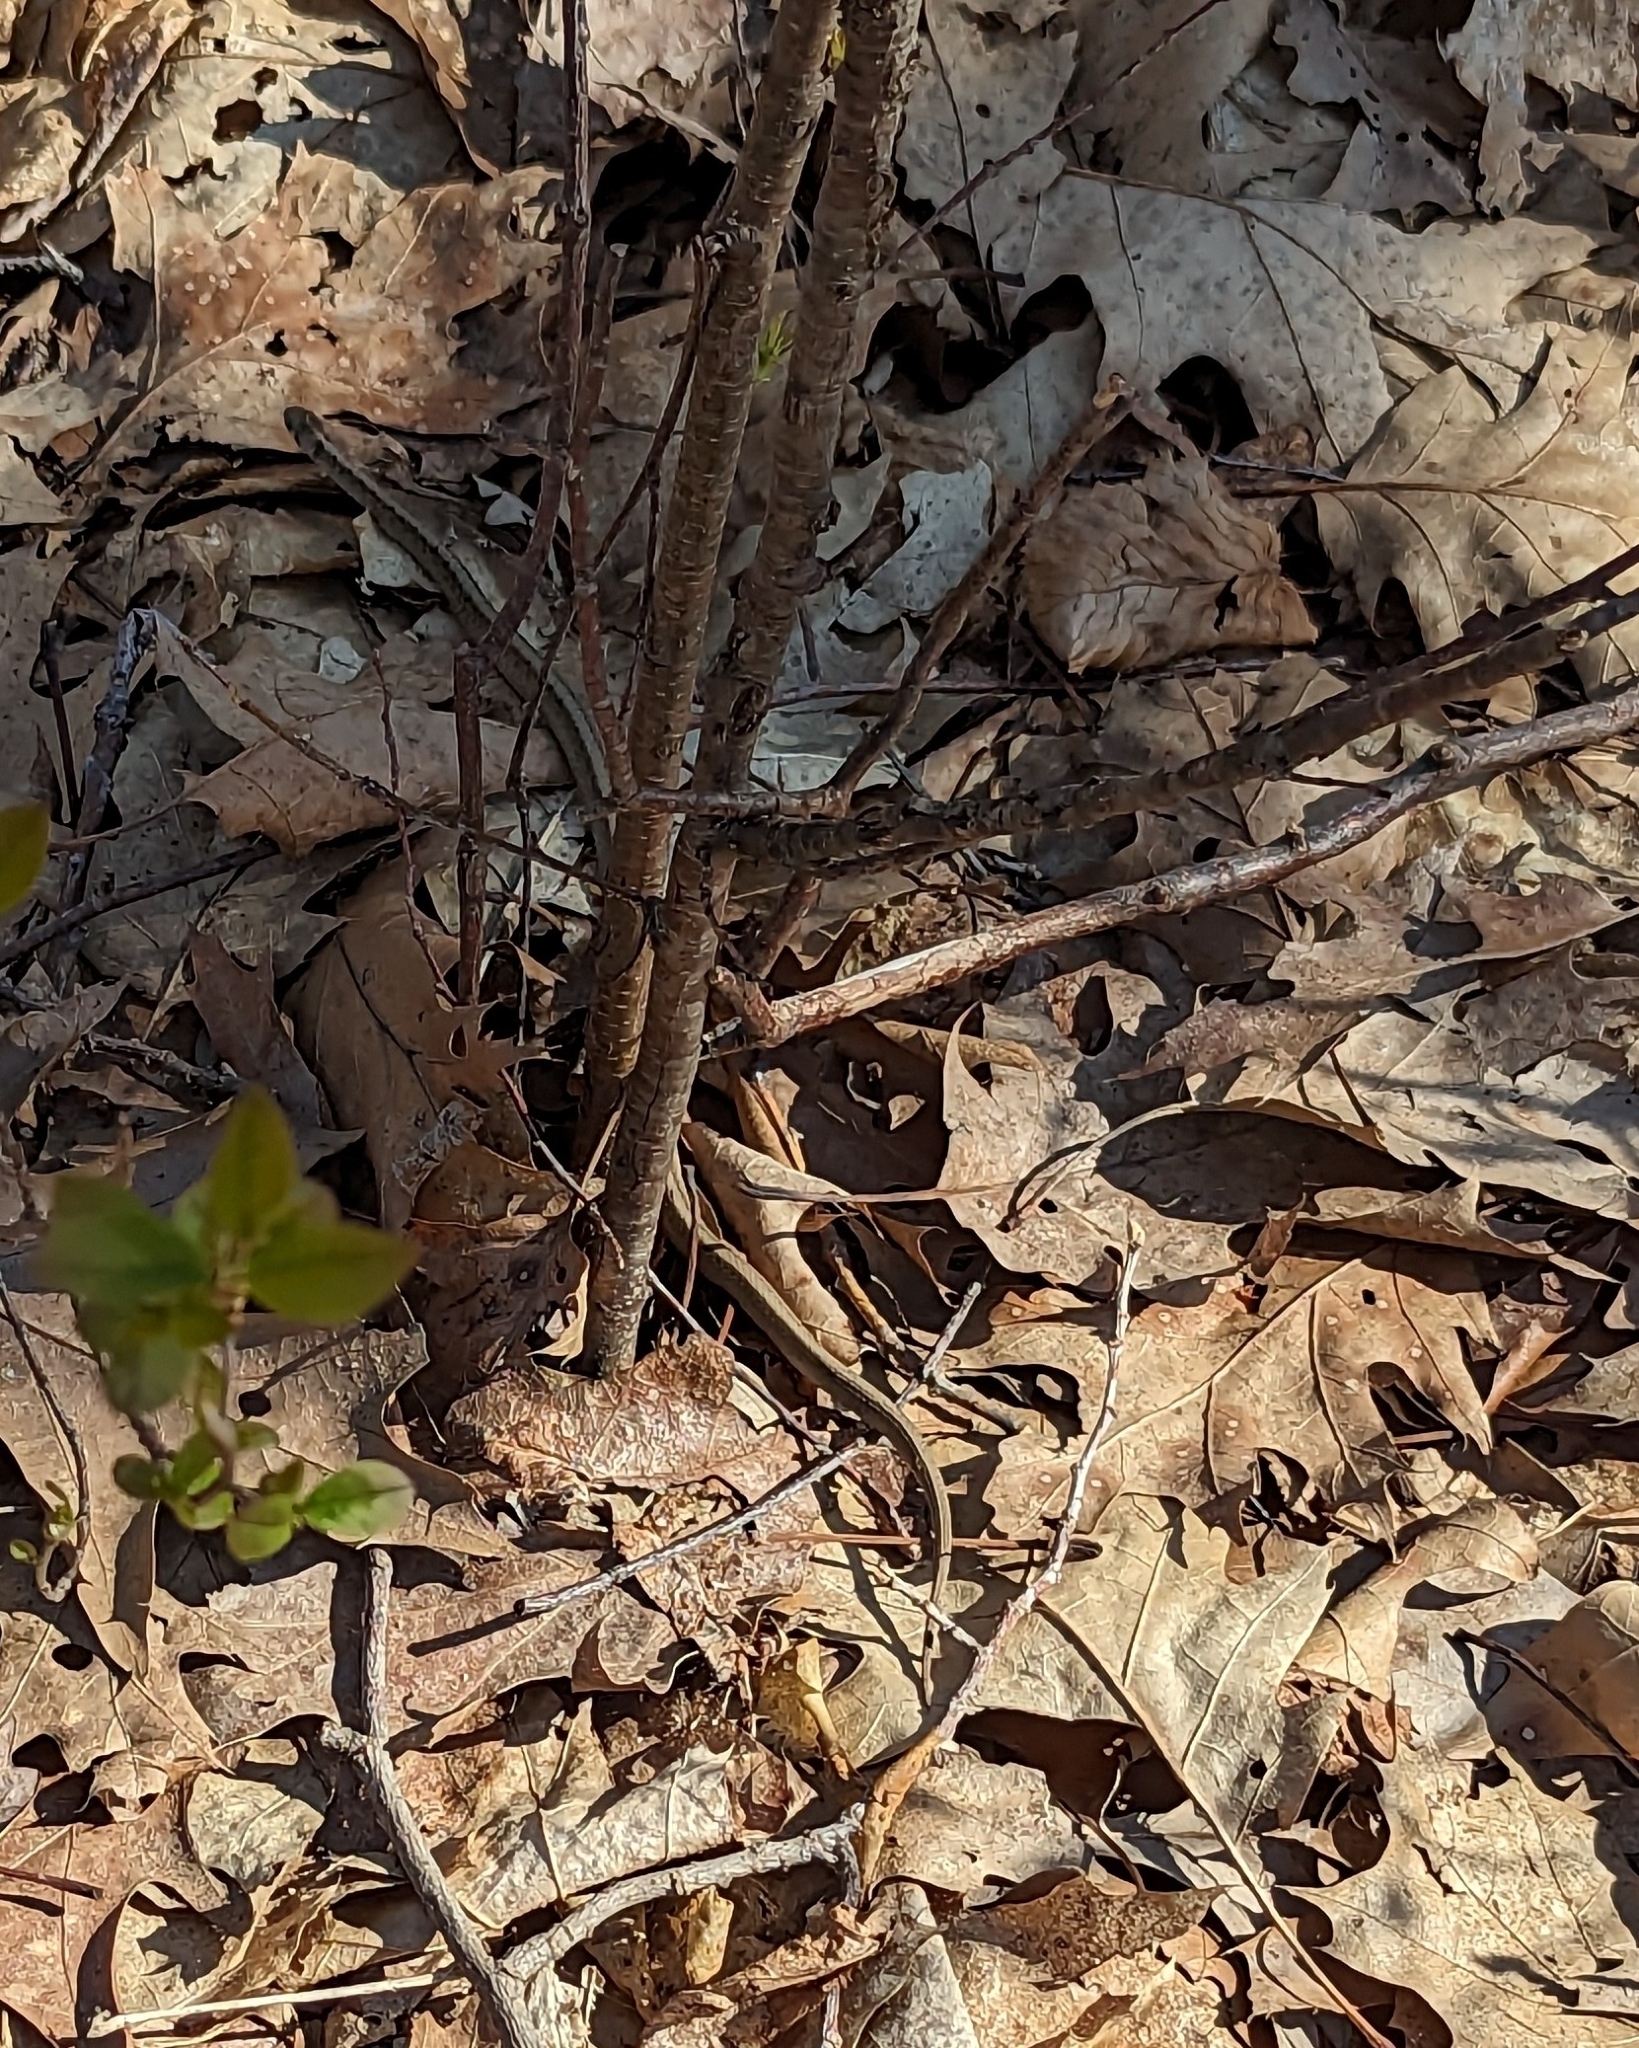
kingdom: Animalia
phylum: Chordata
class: Squamata
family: Colubridae
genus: Storeria
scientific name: Storeria dekayi
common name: (dekay’s) brown snake
